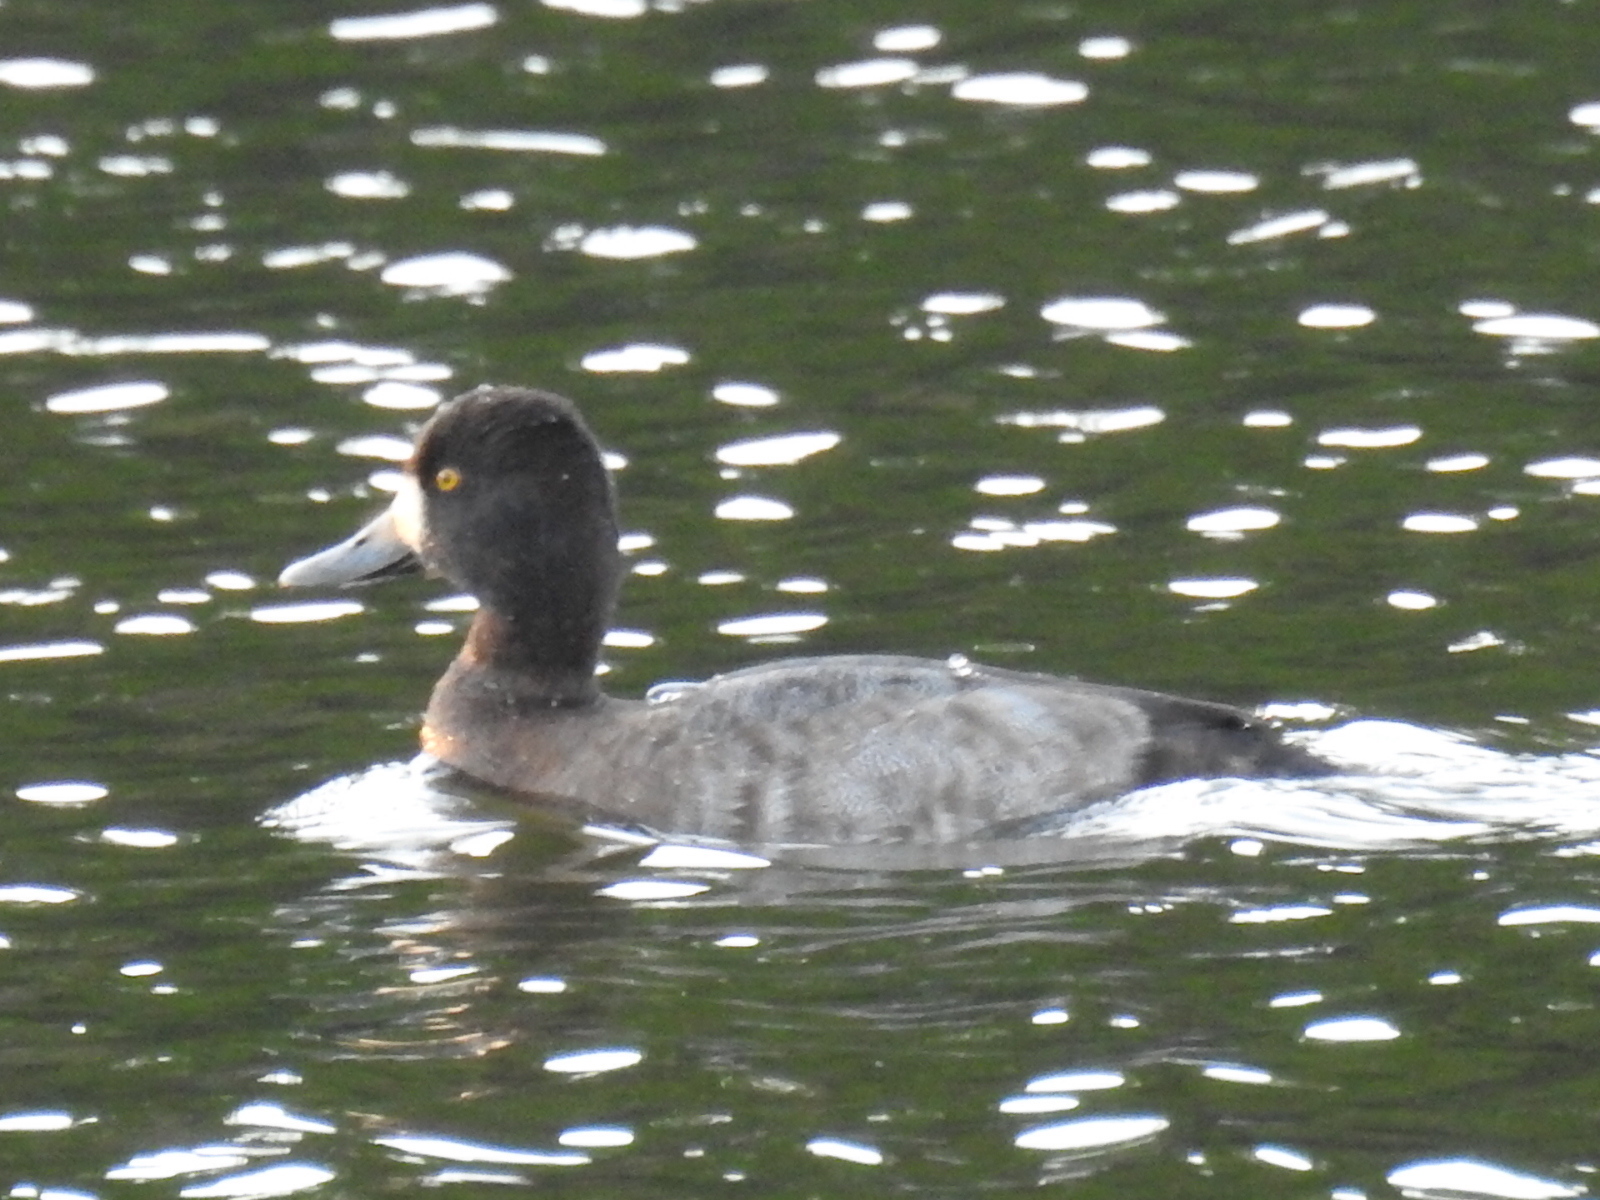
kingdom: Animalia
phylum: Chordata
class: Aves
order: Anseriformes
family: Anatidae
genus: Aythya
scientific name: Aythya affinis
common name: Lesser scaup
